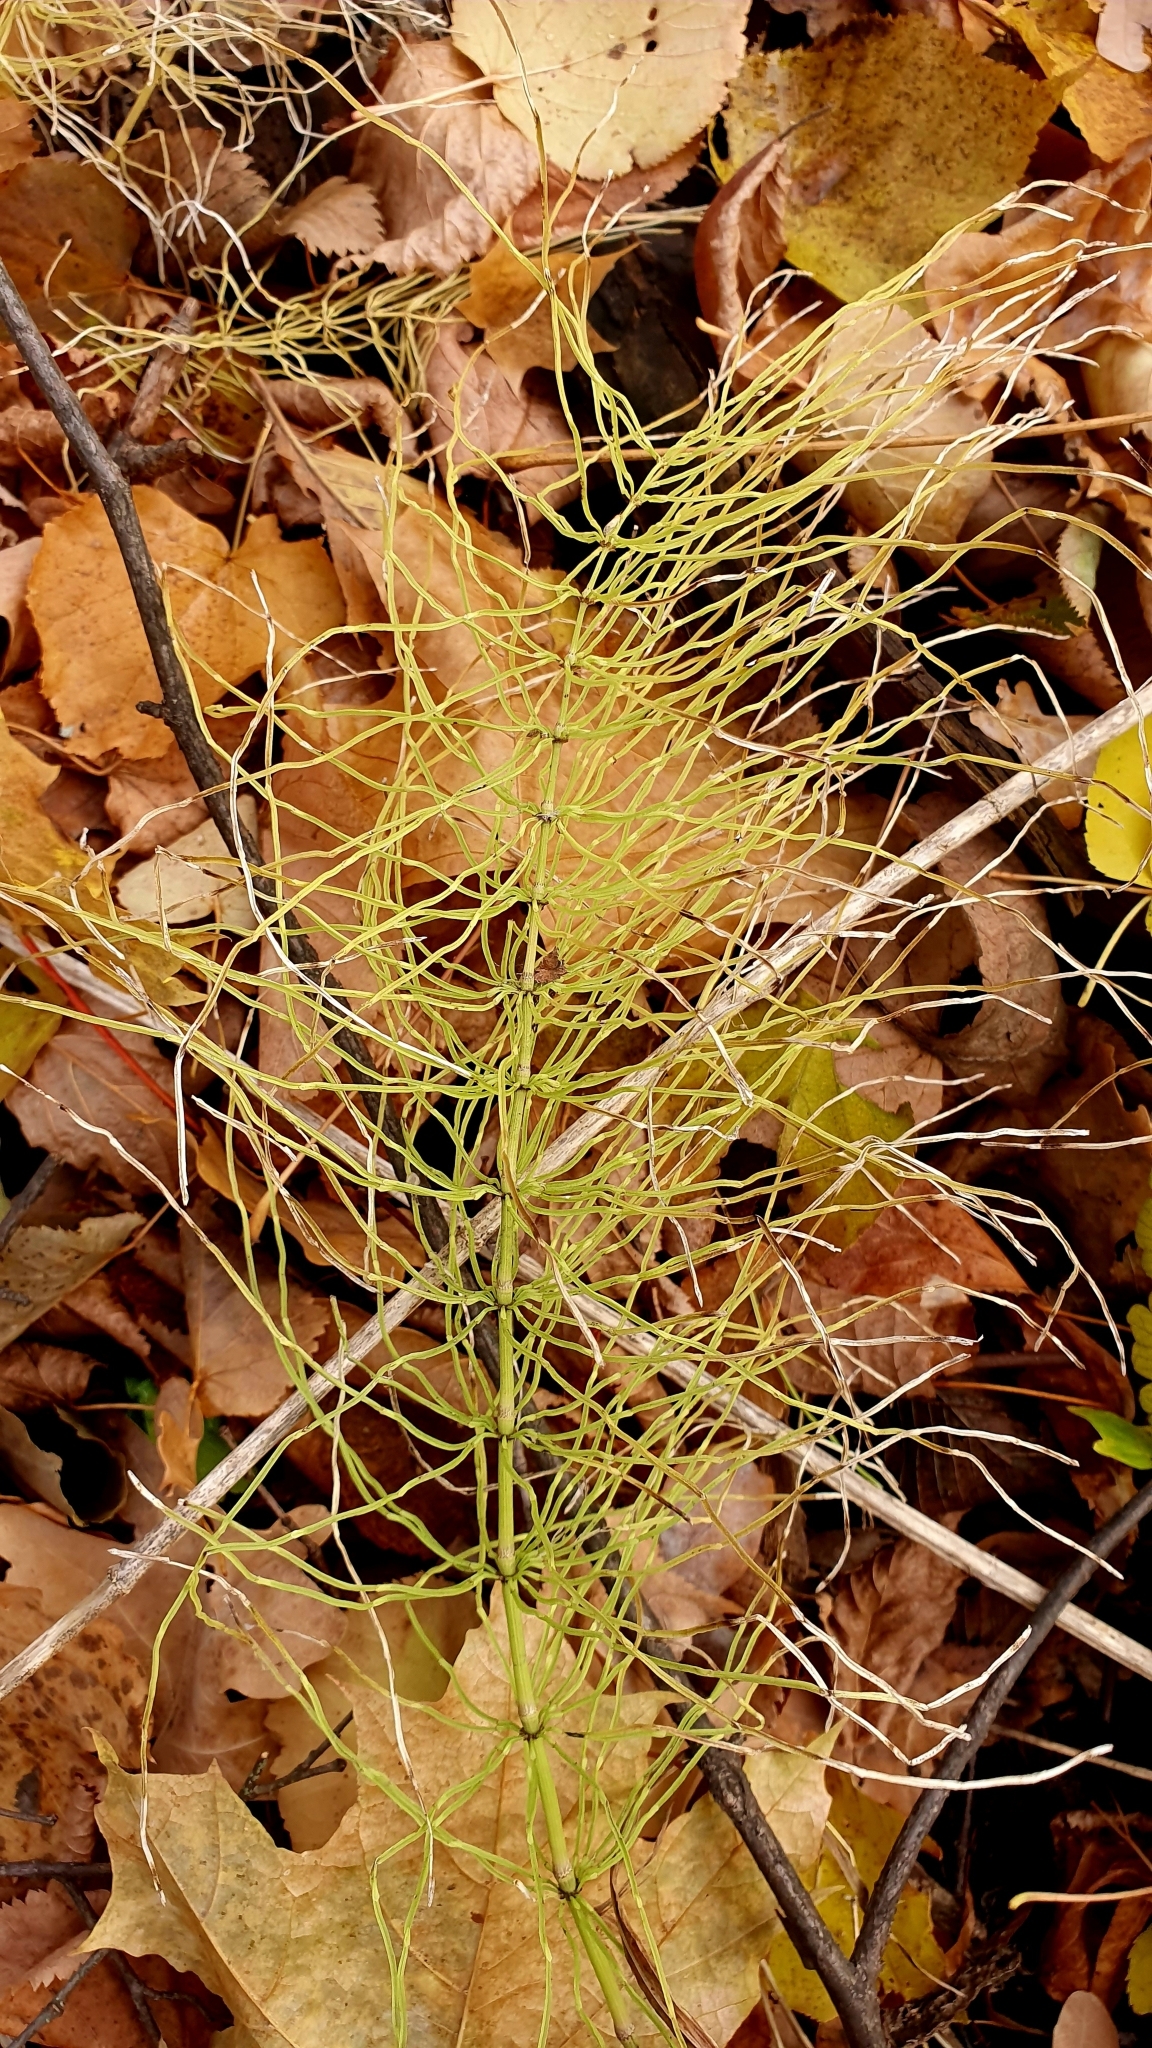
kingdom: Plantae
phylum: Tracheophyta
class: Polypodiopsida
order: Equisetales
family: Equisetaceae
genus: Equisetum
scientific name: Equisetum pratense
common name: Meadow horsetail
